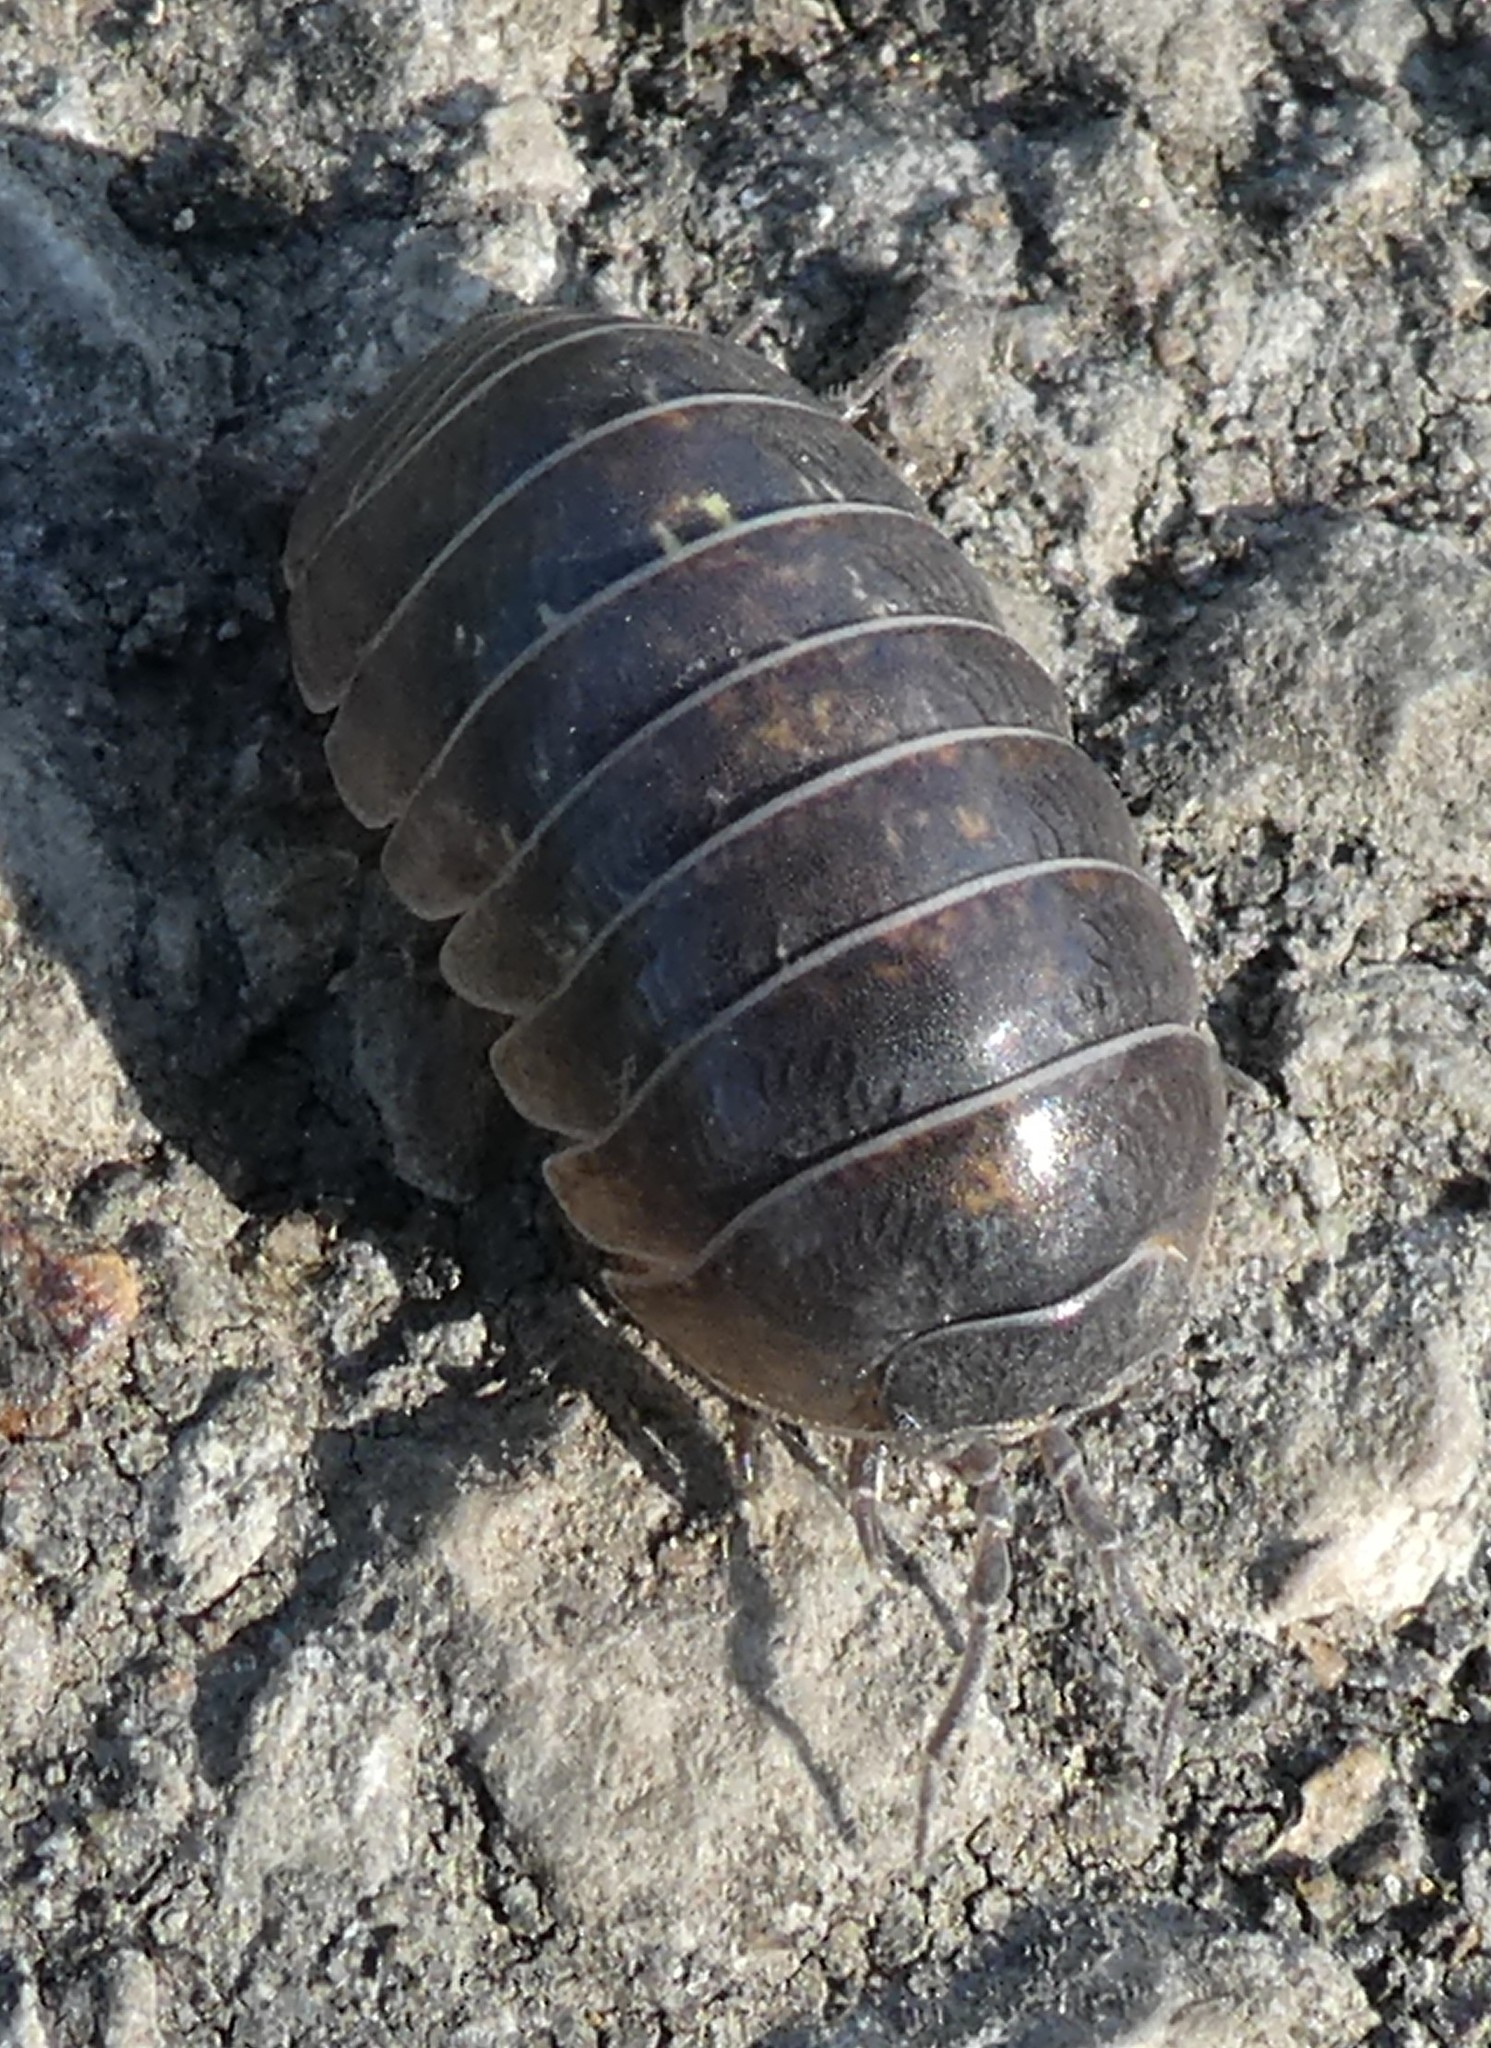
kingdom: Animalia
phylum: Arthropoda
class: Malacostraca
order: Isopoda
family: Armadillidiidae
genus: Armadillidium
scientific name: Armadillidium vulgare
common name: Common pill woodlouse
